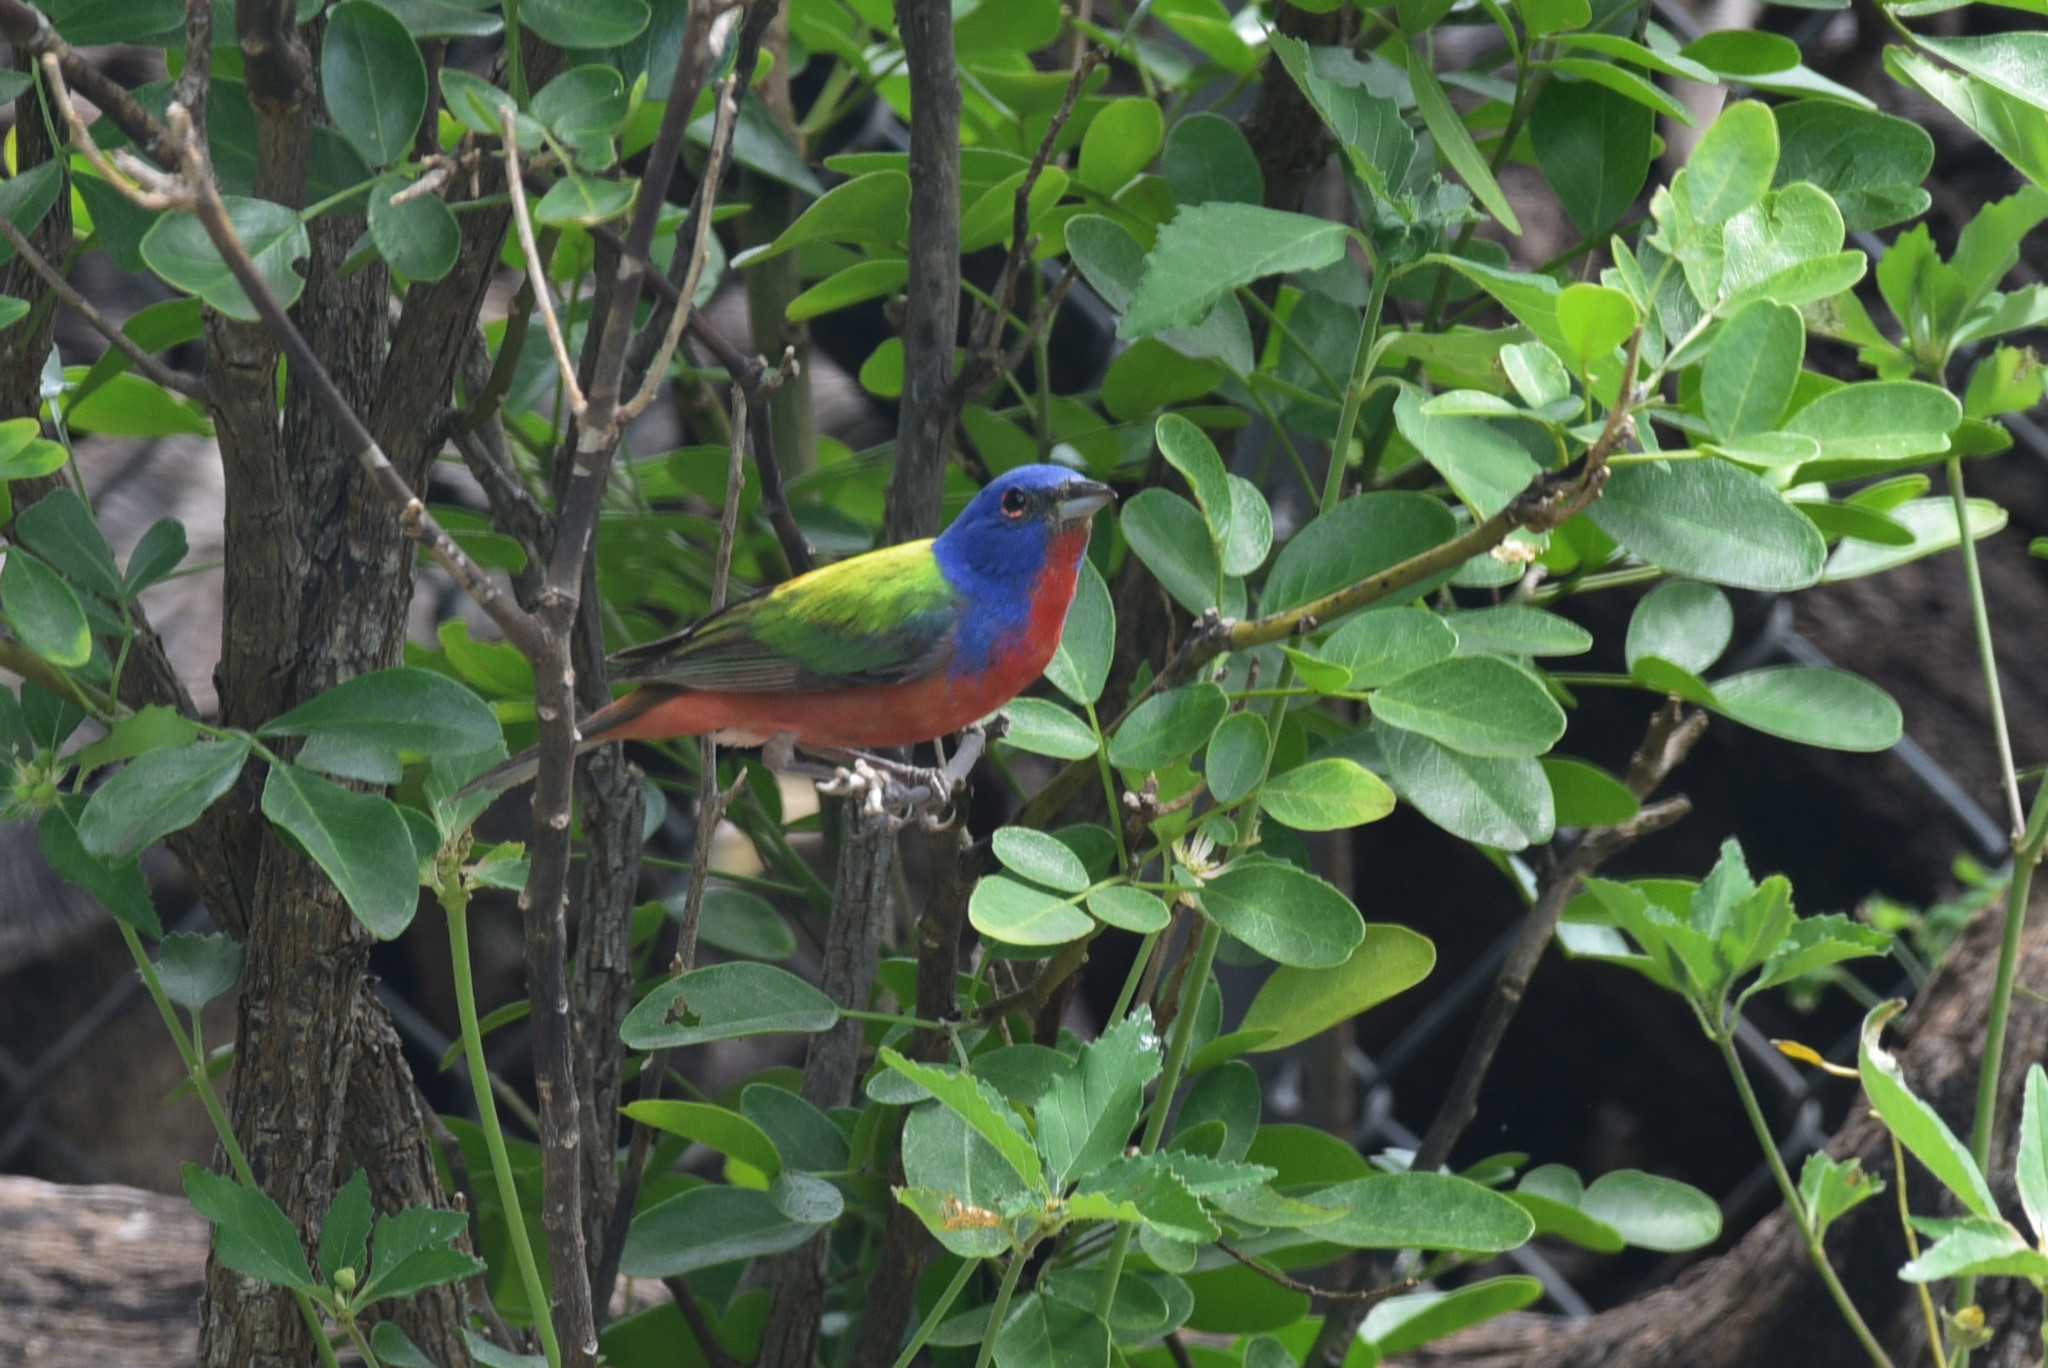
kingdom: Animalia
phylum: Chordata
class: Aves
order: Passeriformes
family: Cardinalidae
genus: Passerina
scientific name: Passerina ciris
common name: Painted bunting
